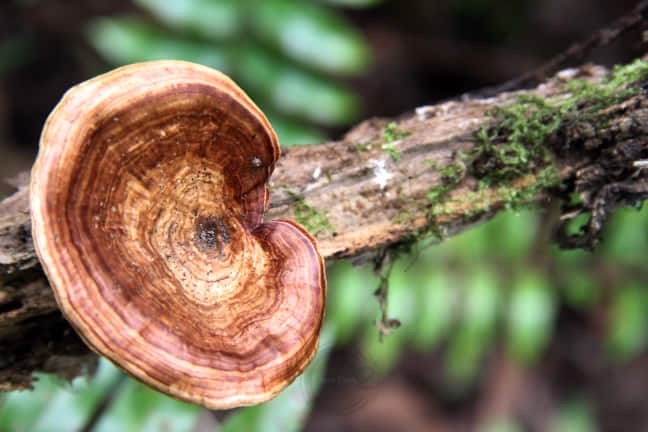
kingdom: Fungi
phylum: Basidiomycota
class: Agaricomycetes
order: Polyporales
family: Polyporaceae
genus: Microporus
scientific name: Microporus xanthopus
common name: Yellow-stemmed micropore
